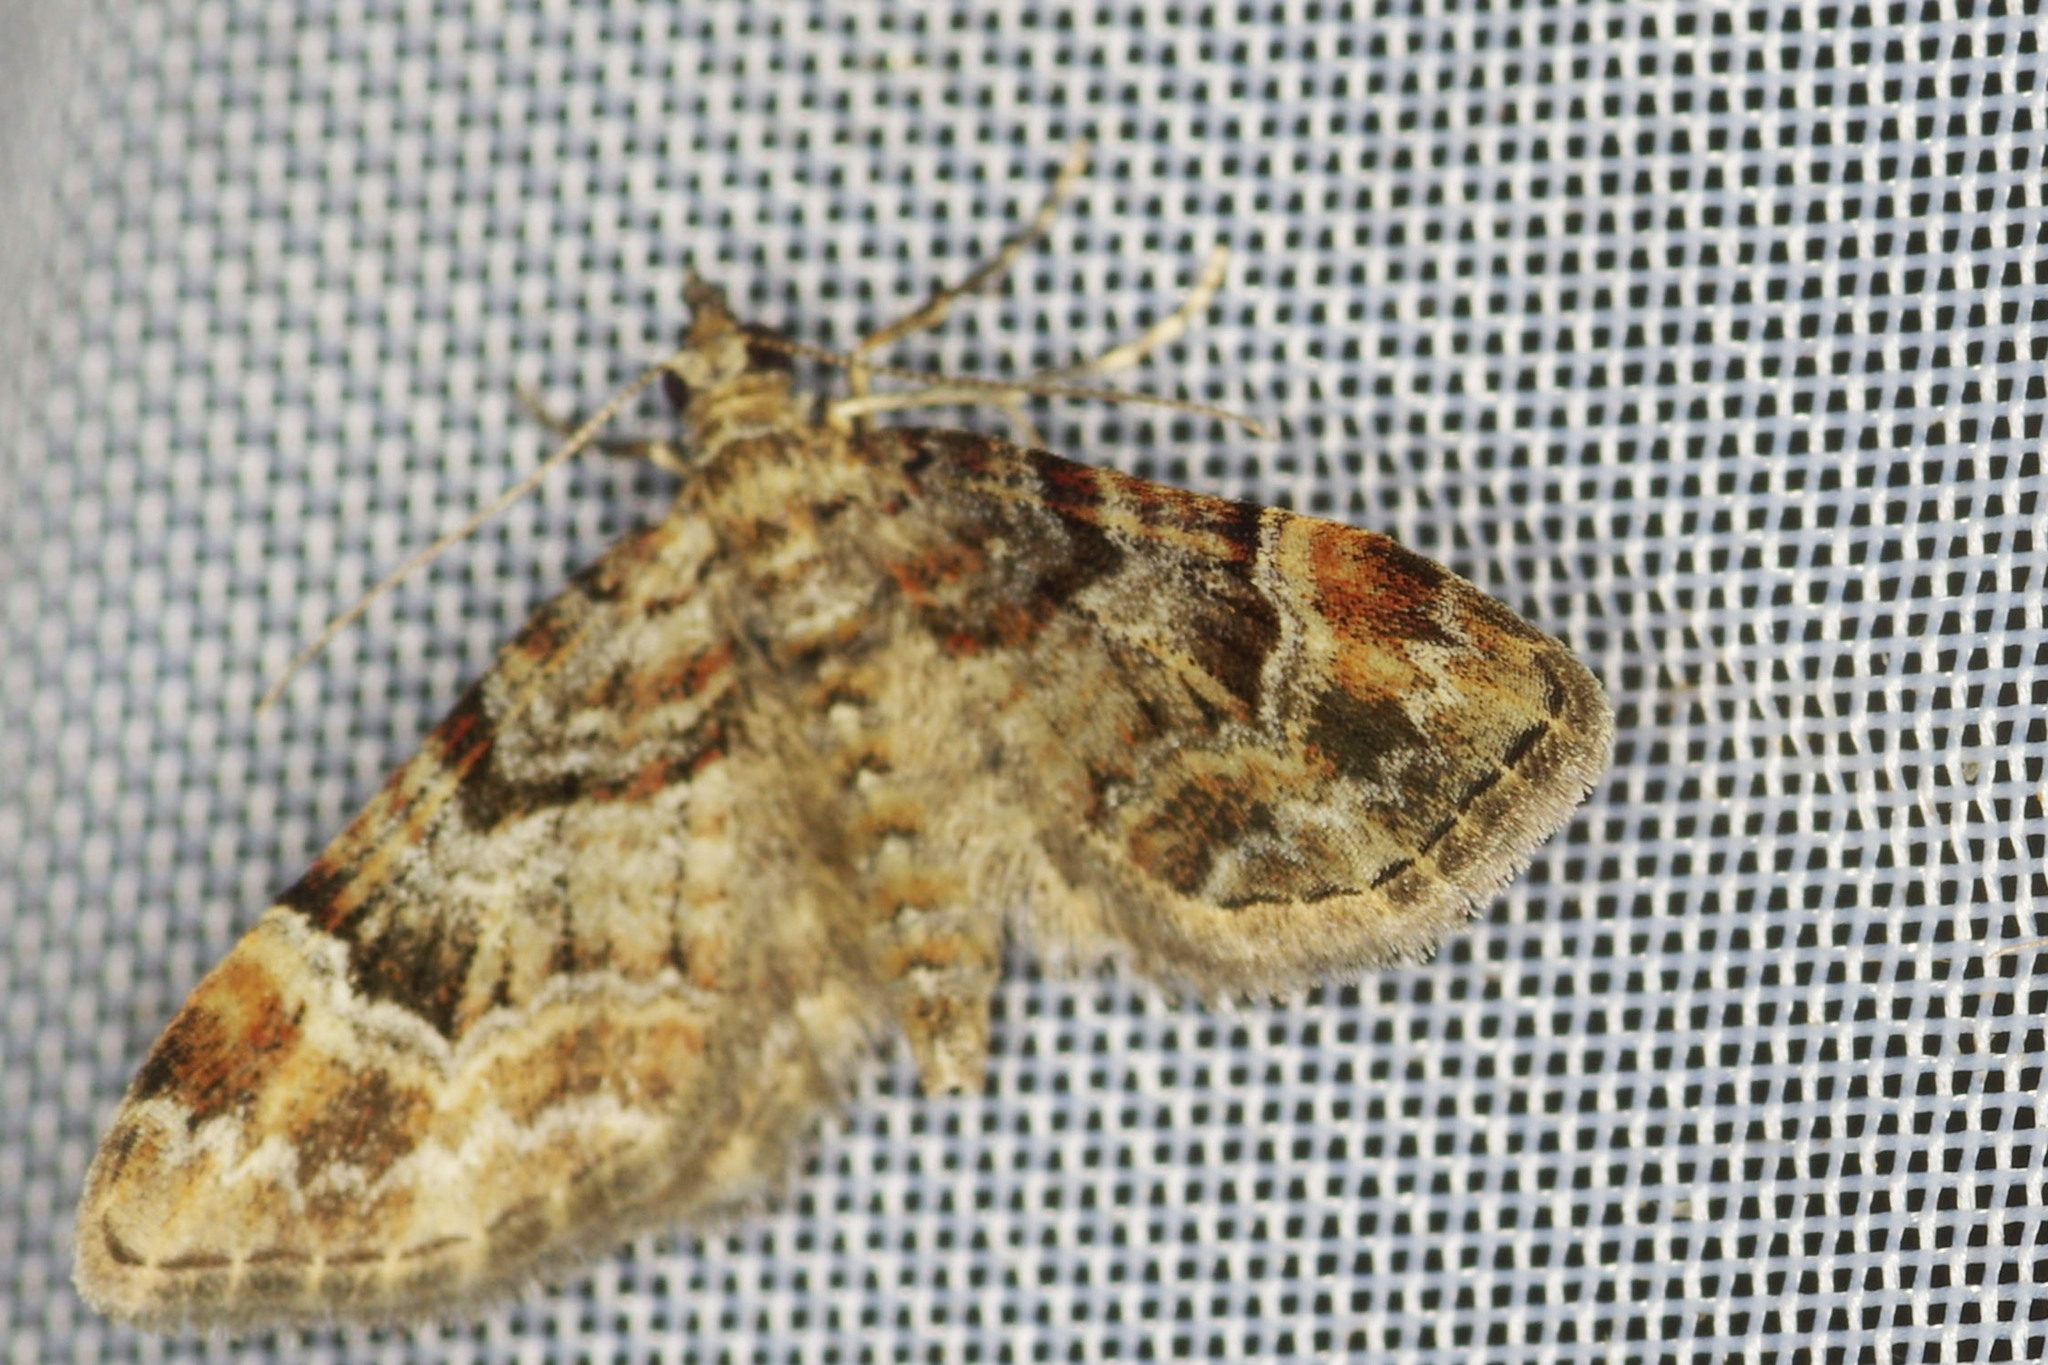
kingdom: Animalia
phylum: Arthropoda
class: Insecta
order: Lepidoptera
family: Geometridae
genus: Gymnoscelis
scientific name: Gymnoscelis rufifasciata
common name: Double-striped pug
